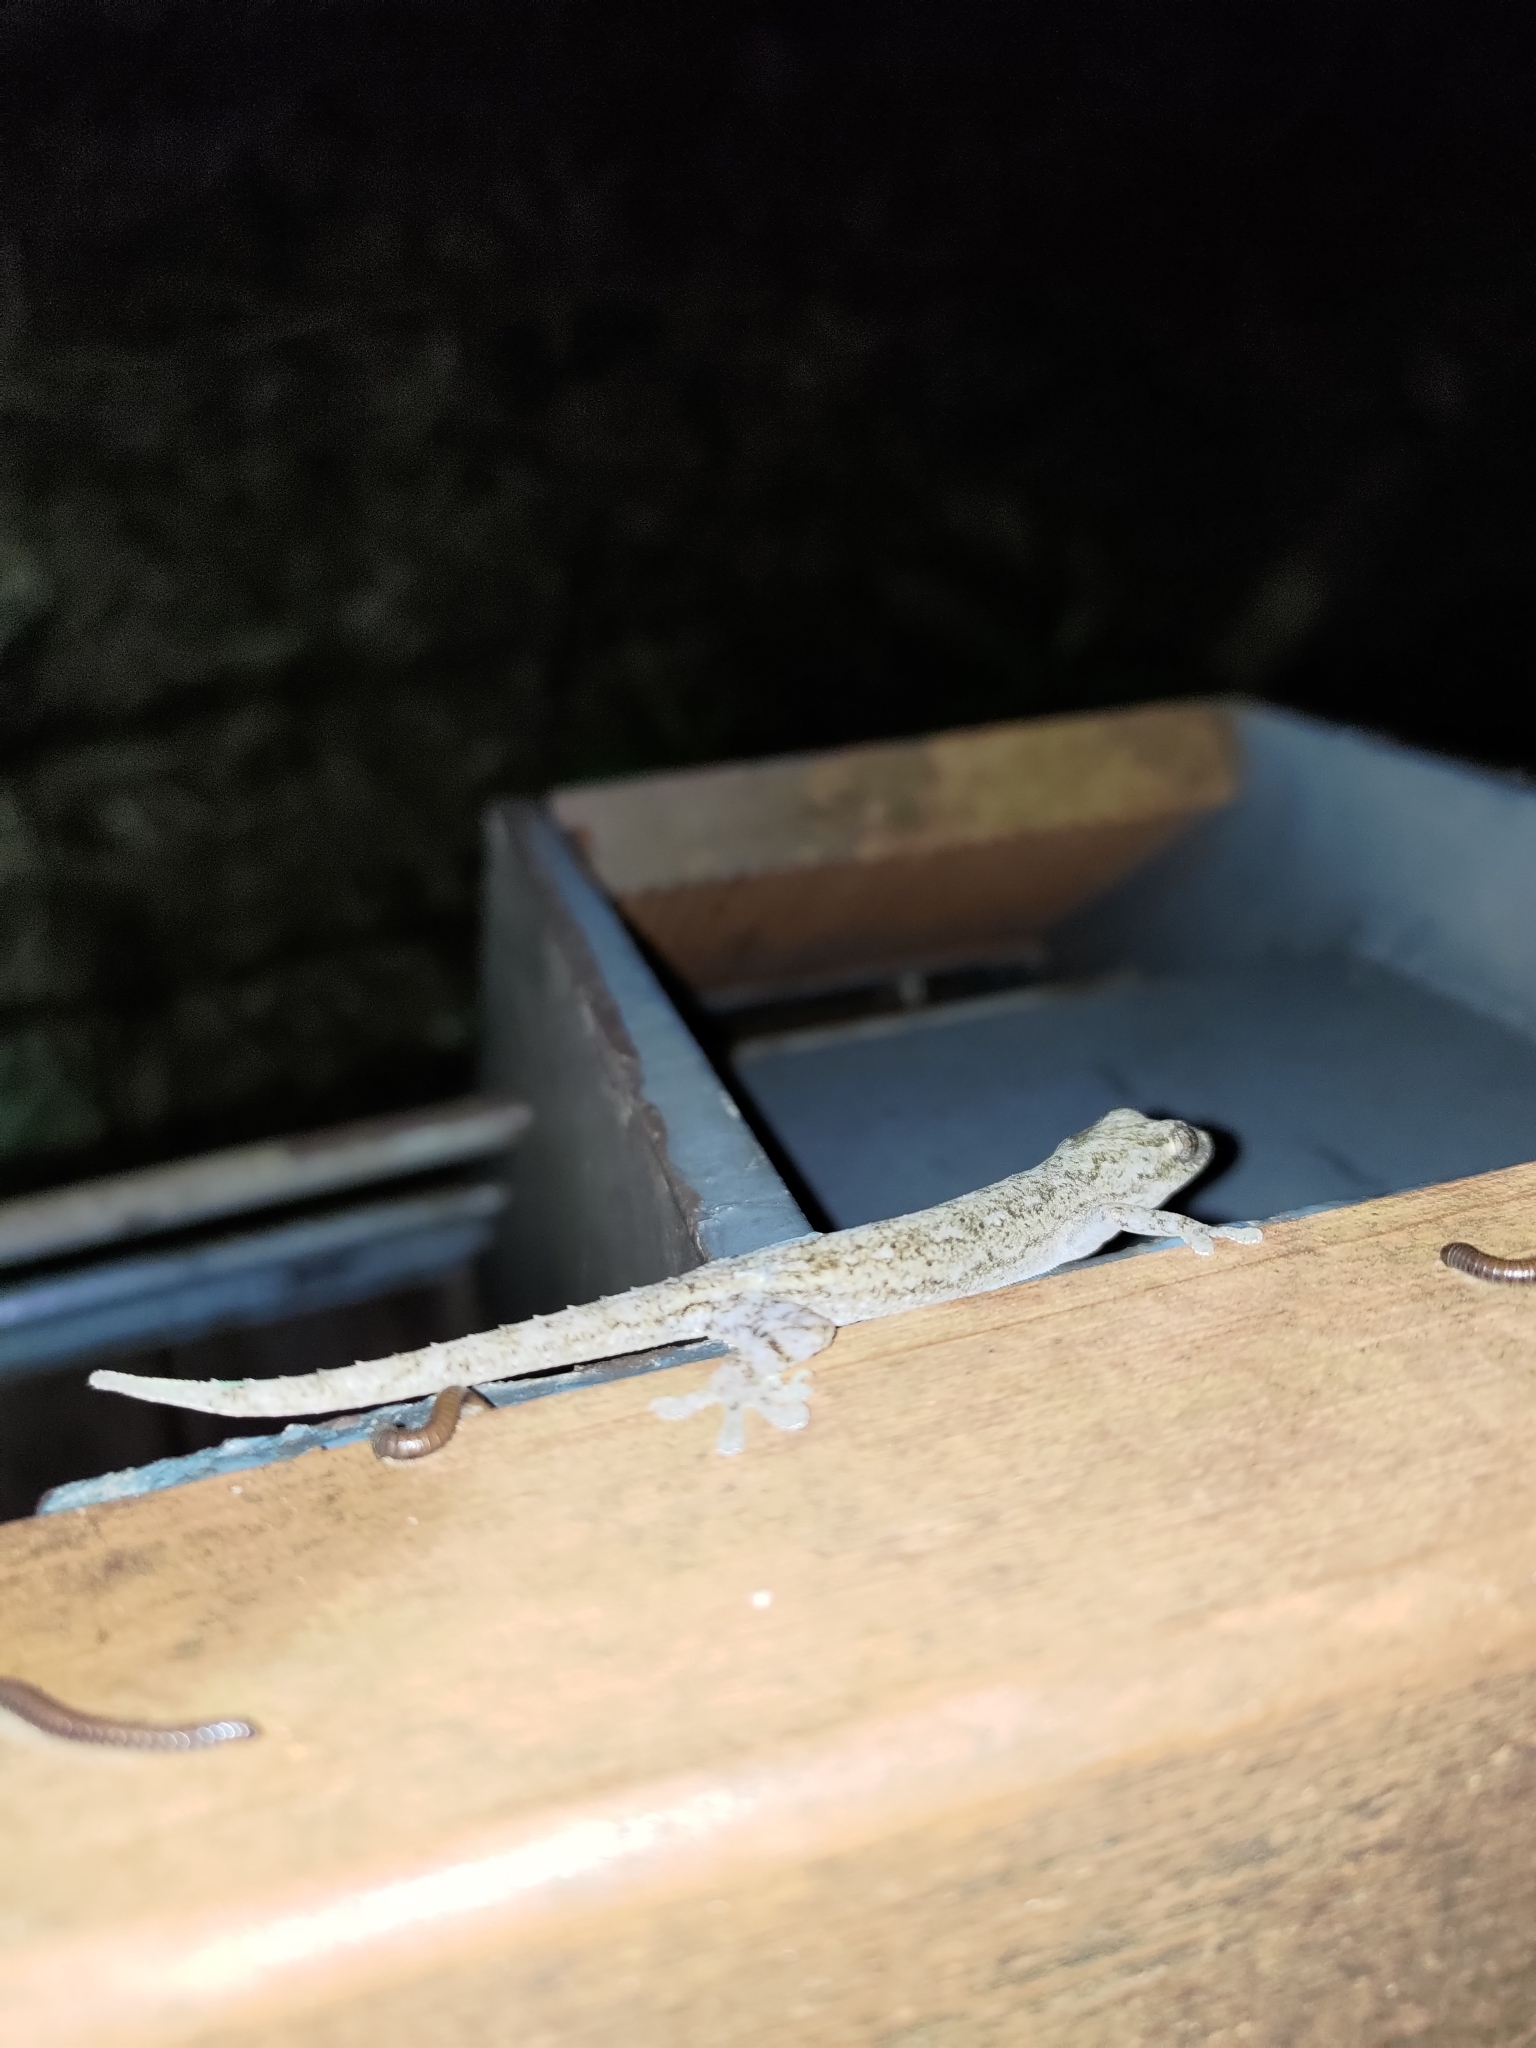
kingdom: Animalia
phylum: Chordata
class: Squamata
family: Gekkonidae
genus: Hemidactylus
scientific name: Hemidactylus frenatus
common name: Common house gecko
